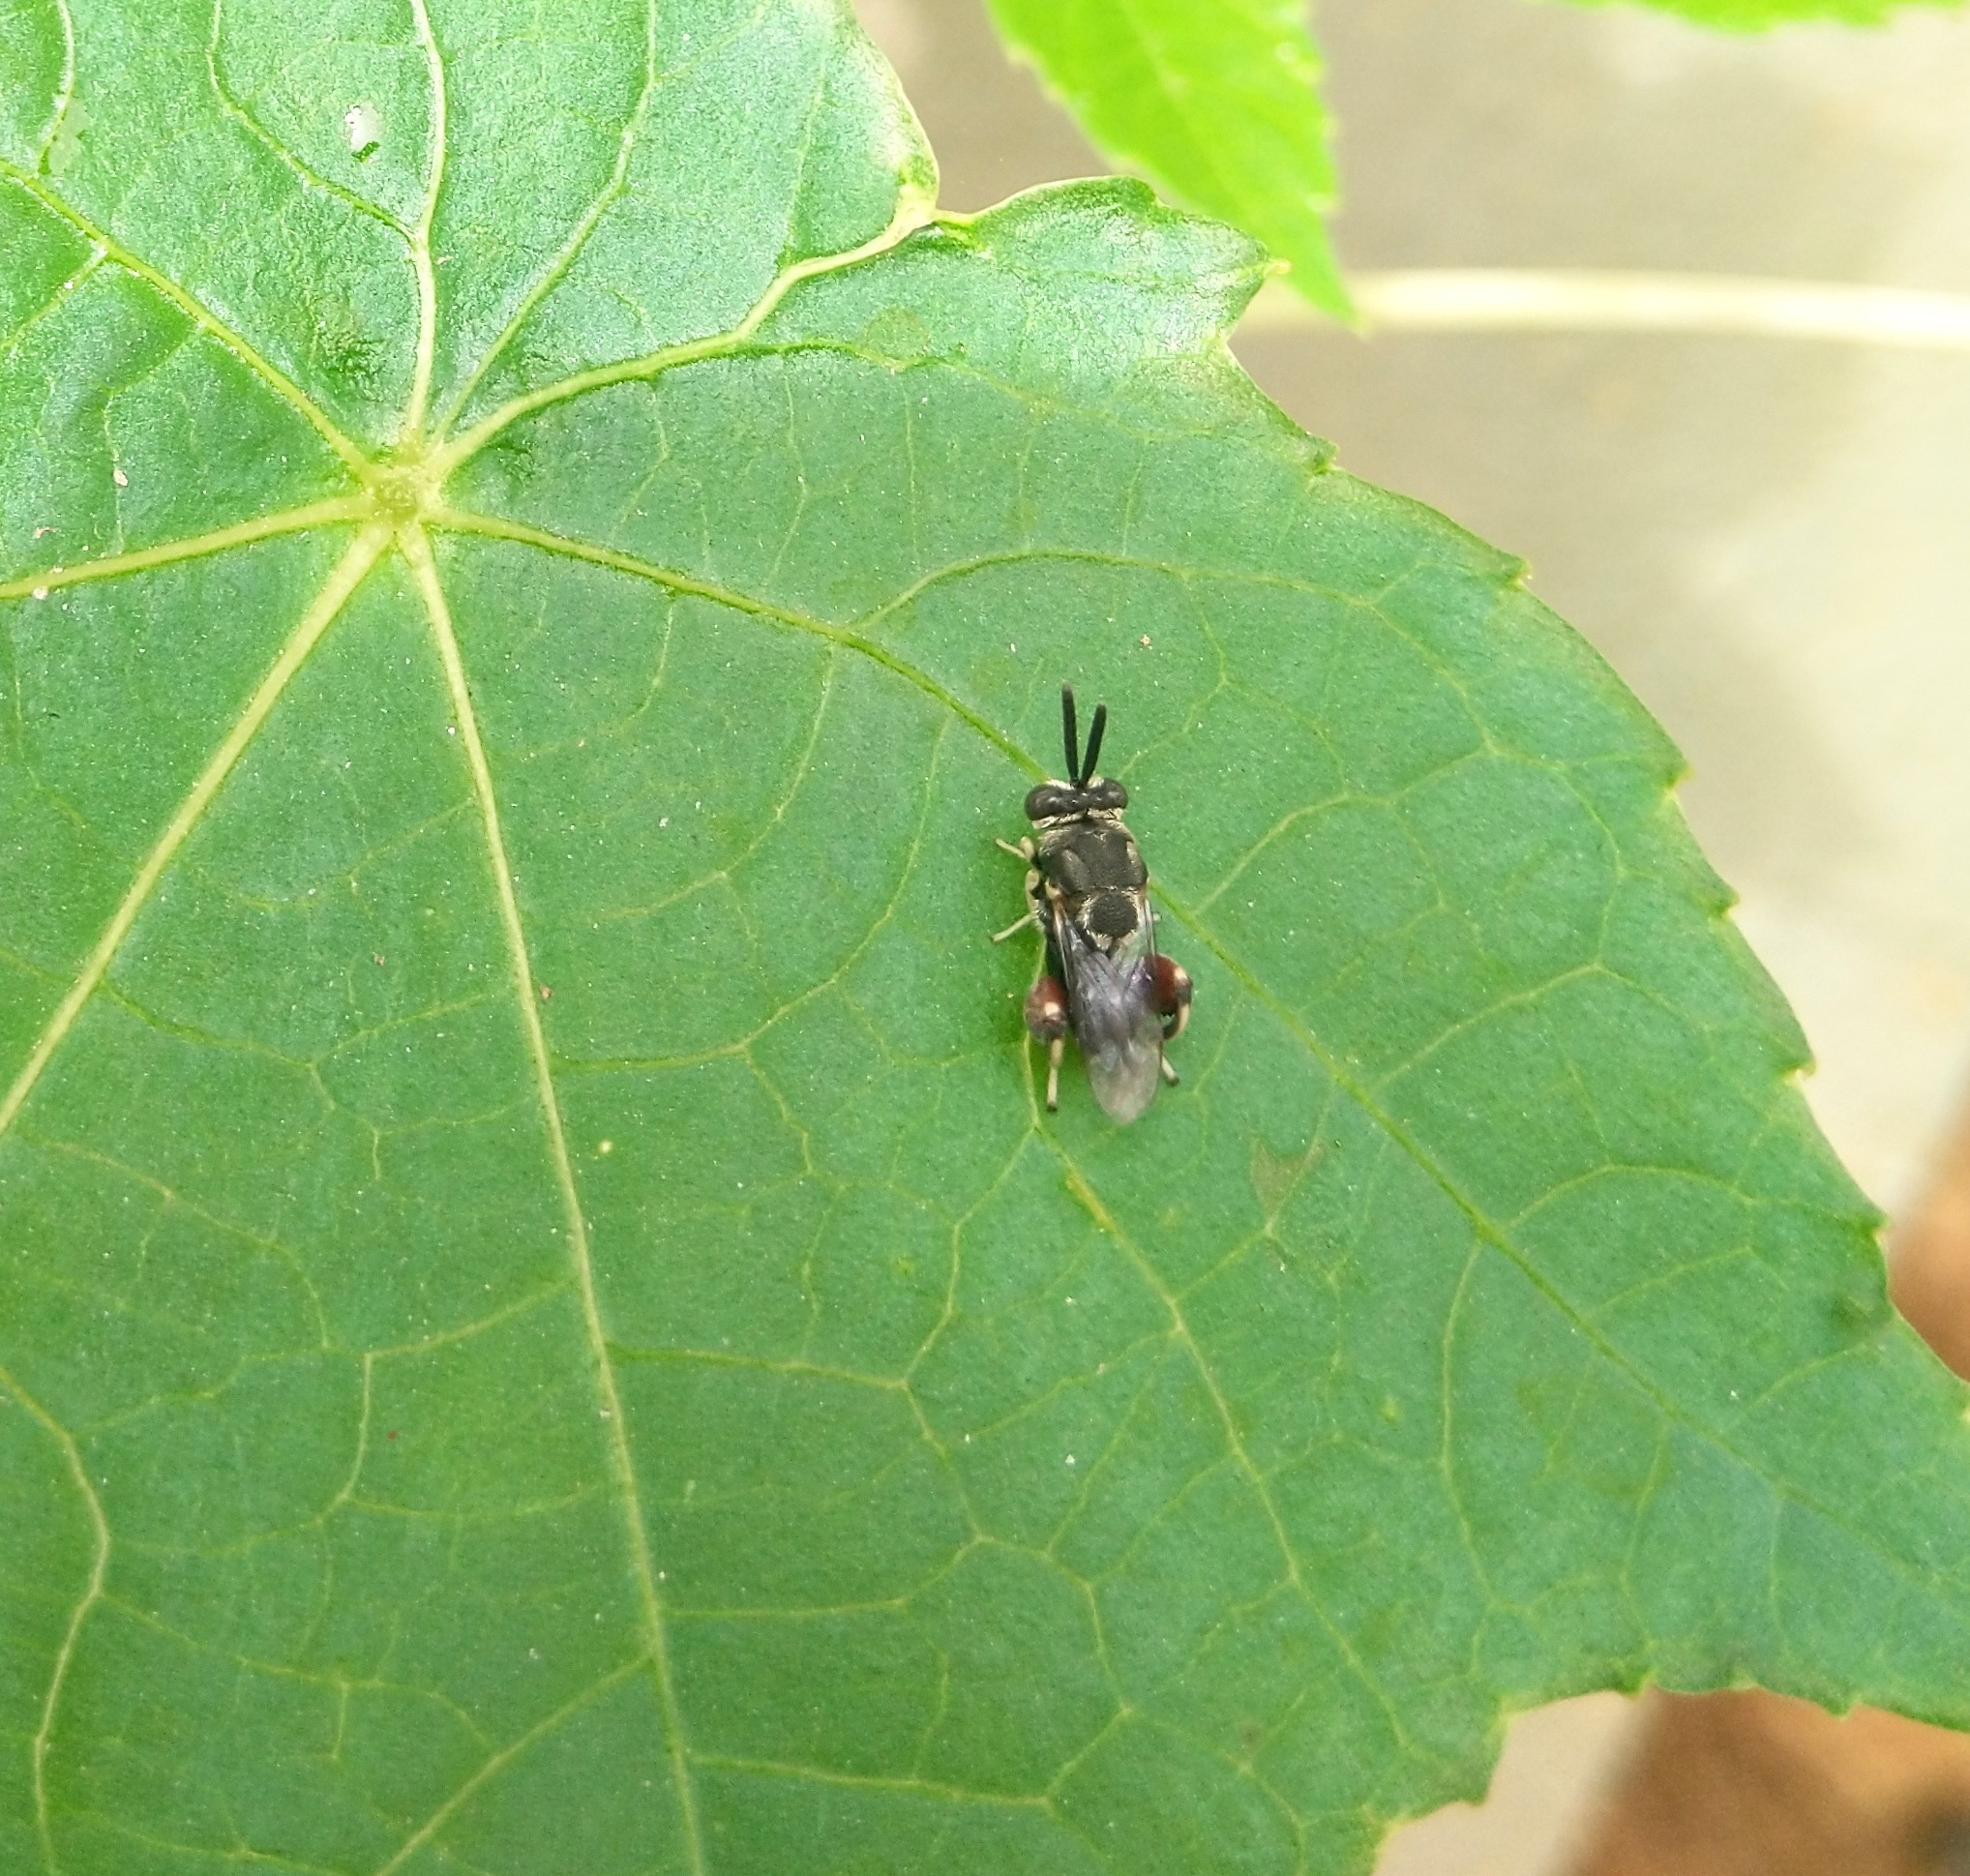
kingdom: Animalia
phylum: Arthropoda
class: Insecta
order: Hymenoptera
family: Chalcididae
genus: Brachymeria
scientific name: Brachymeria podagrica
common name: Chalcid wasp
